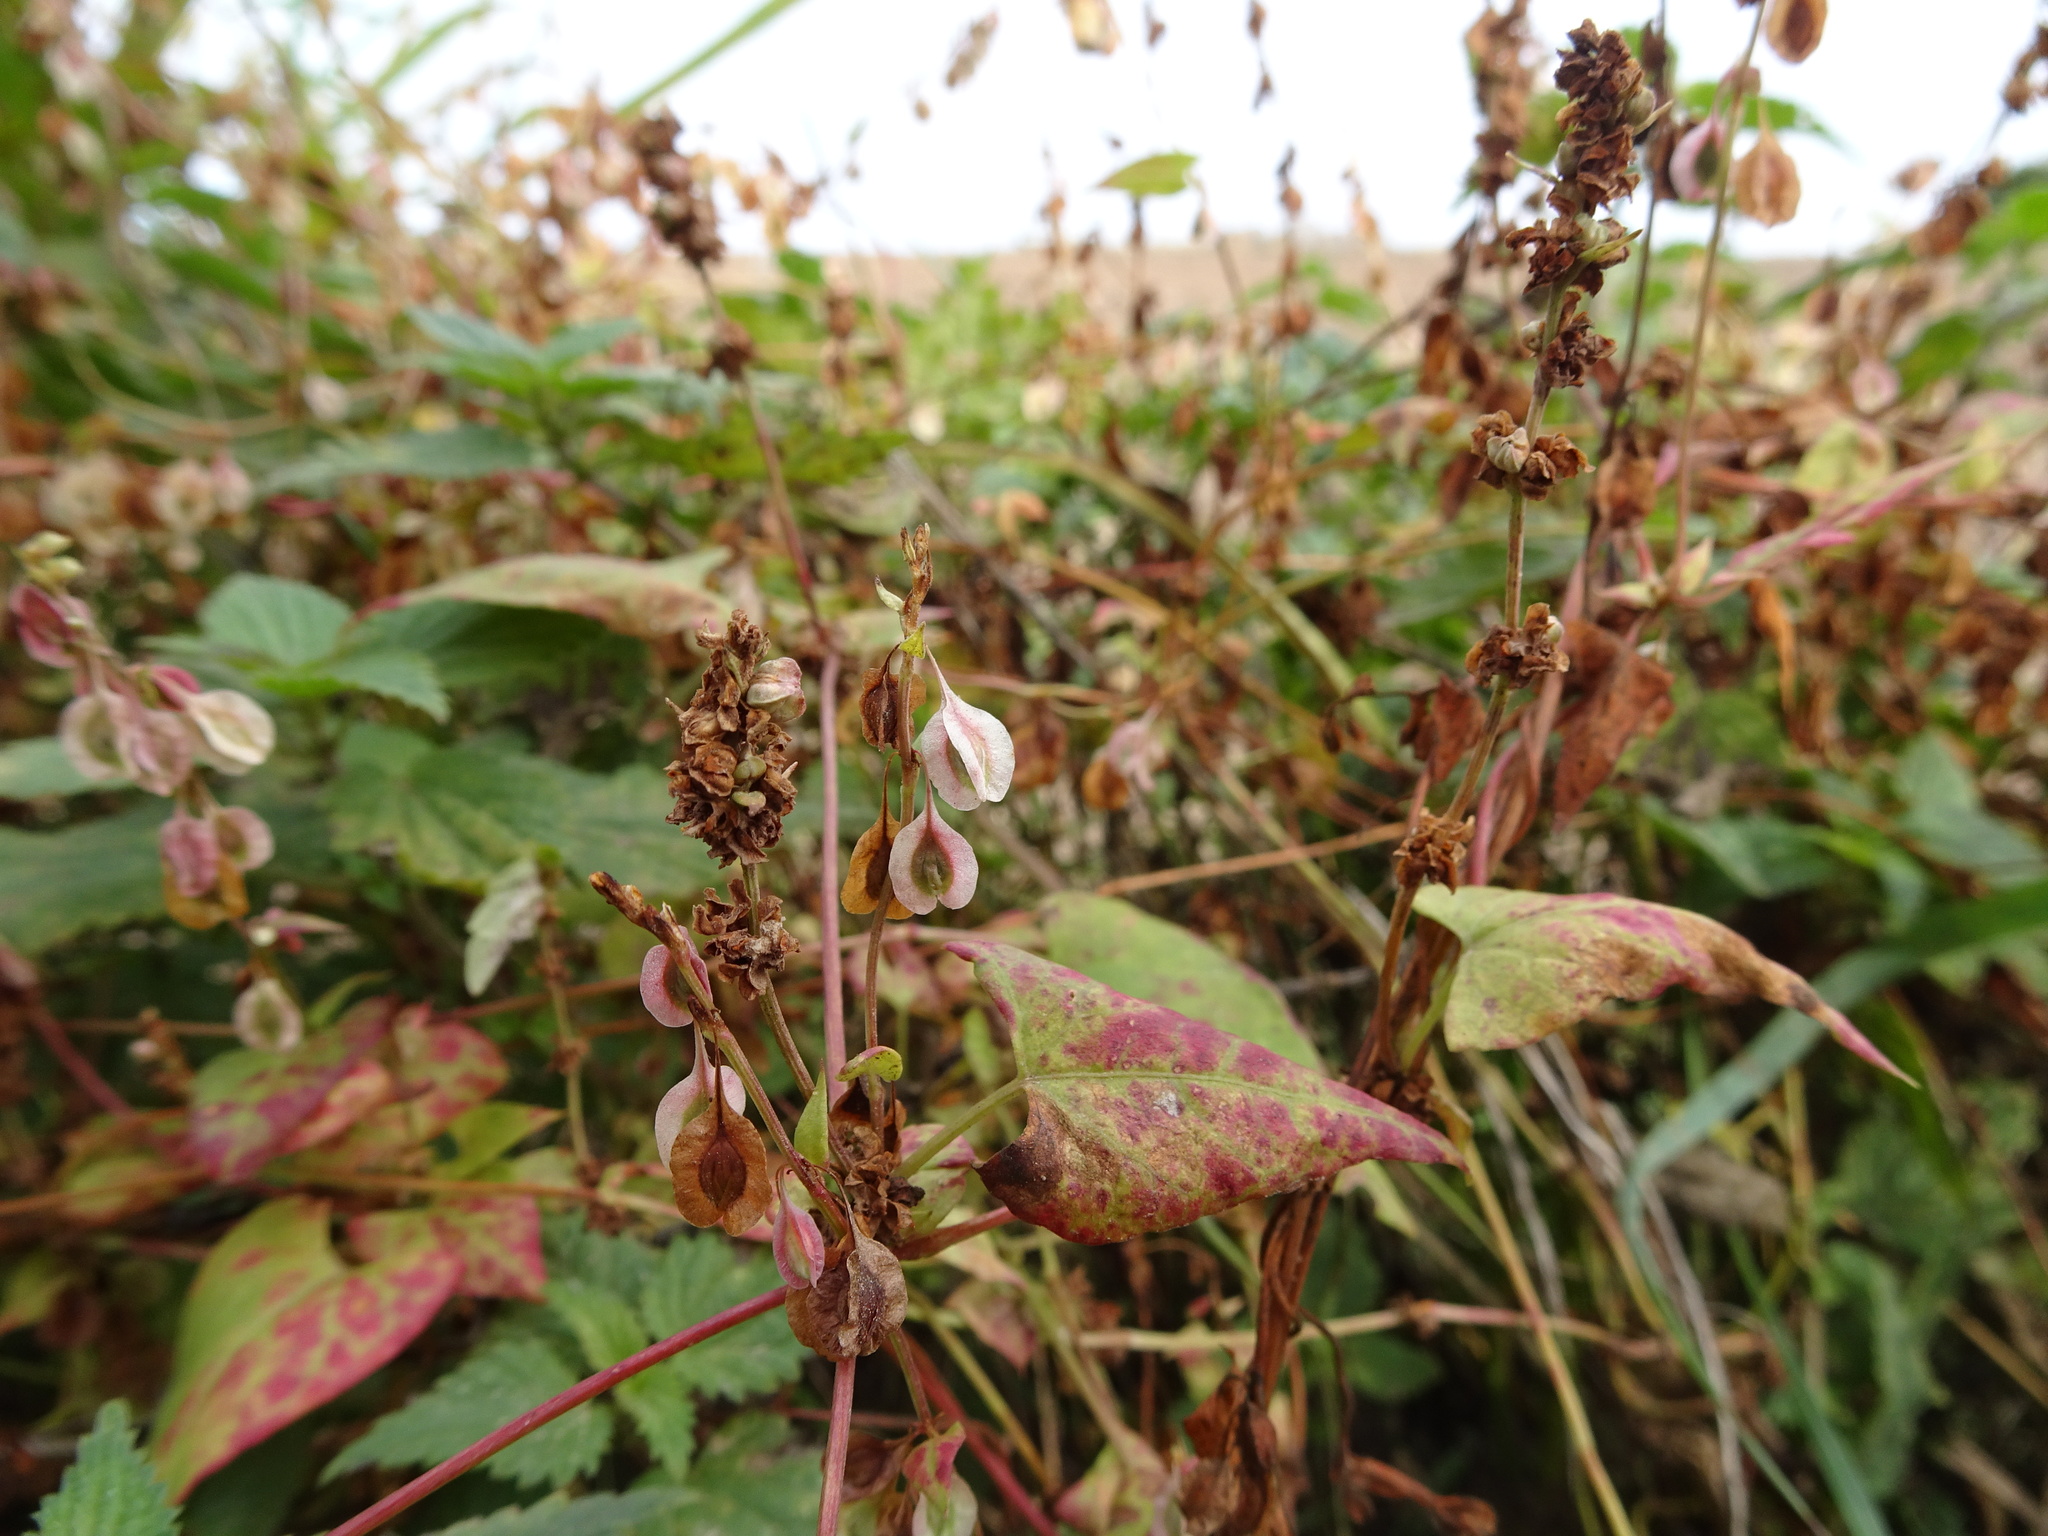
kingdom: Plantae
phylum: Tracheophyta
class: Magnoliopsida
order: Caryophyllales
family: Polygonaceae
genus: Fallopia
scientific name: Fallopia dumetorum
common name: Copse-bindweed
